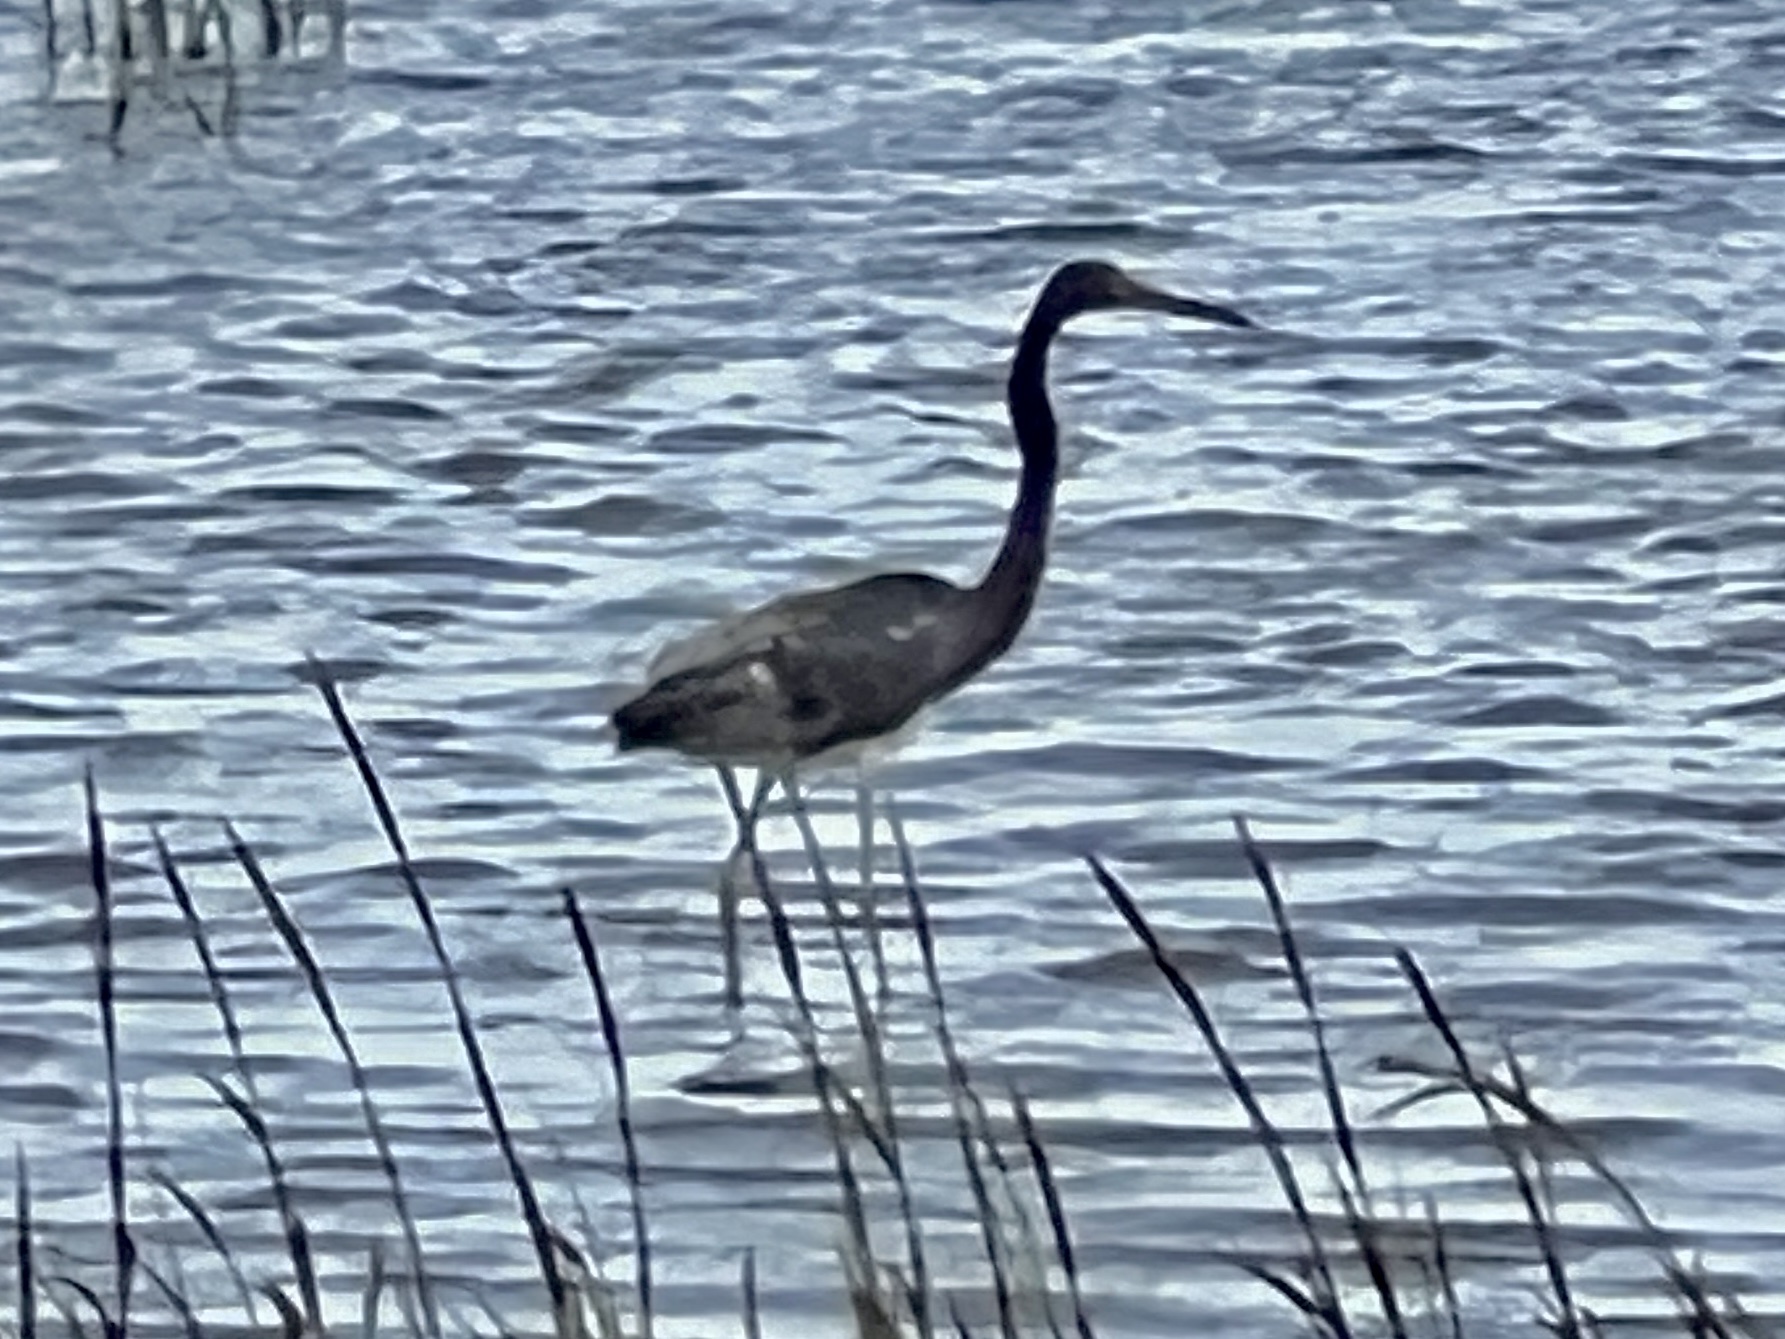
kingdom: Animalia
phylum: Chordata
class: Aves
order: Pelecaniformes
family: Ardeidae
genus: Egretta
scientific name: Egretta tricolor
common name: Tricolored heron
